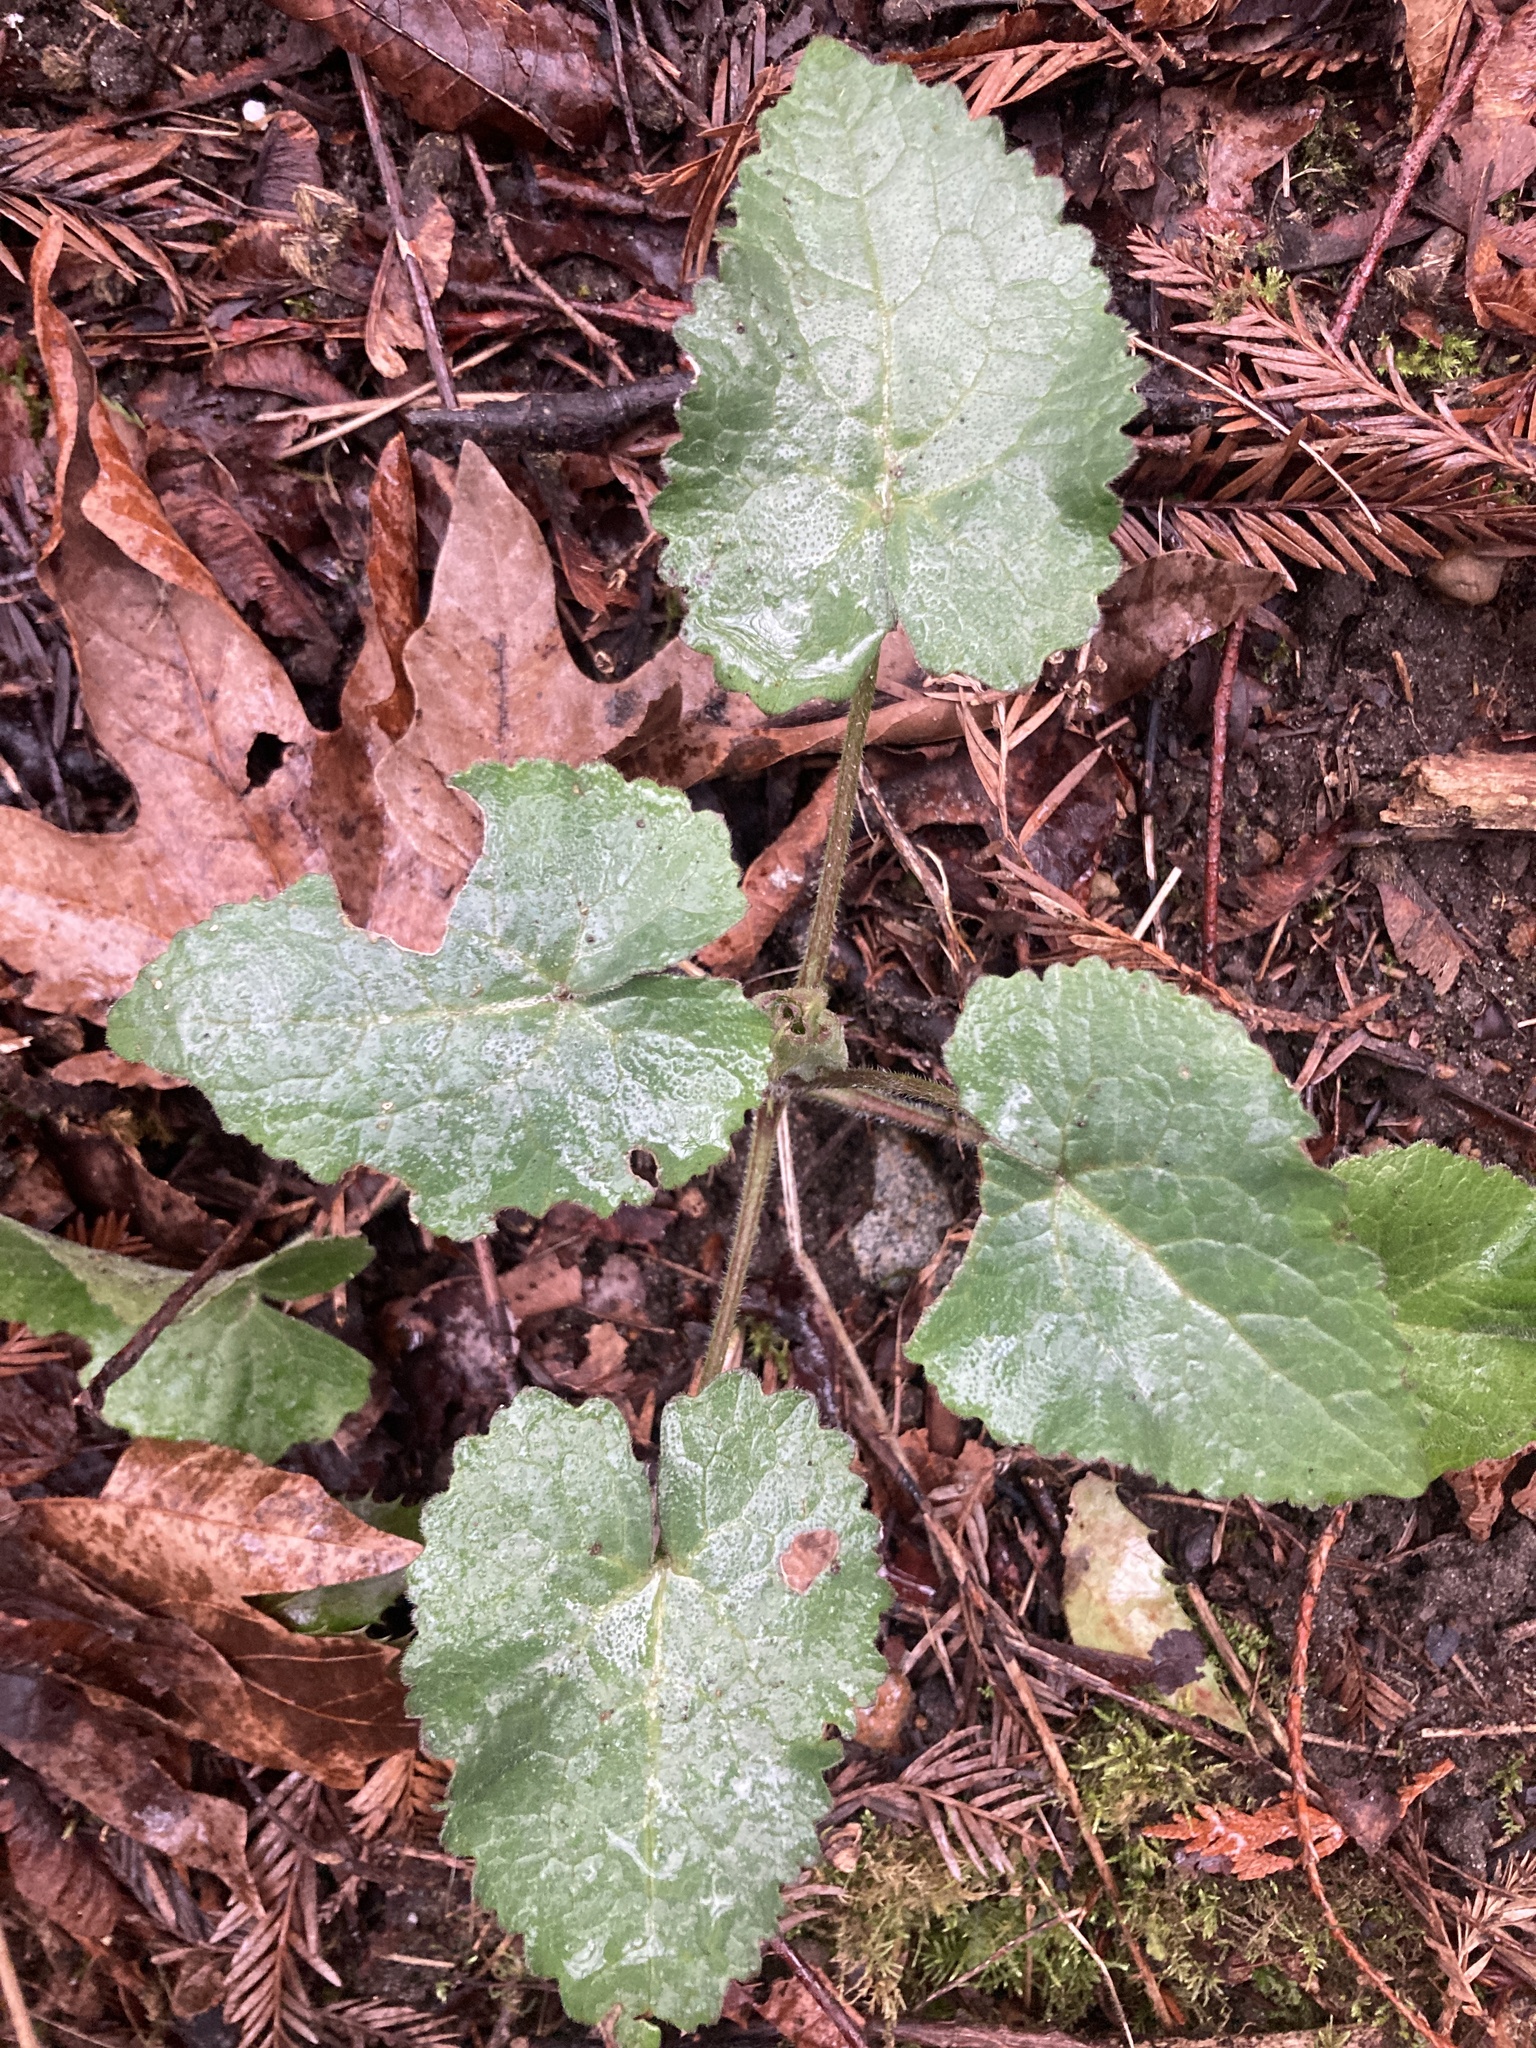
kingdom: Plantae
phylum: Tracheophyta
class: Magnoliopsida
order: Brassicales
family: Brassicaceae
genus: Lunaria
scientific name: Lunaria annua
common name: Honesty
